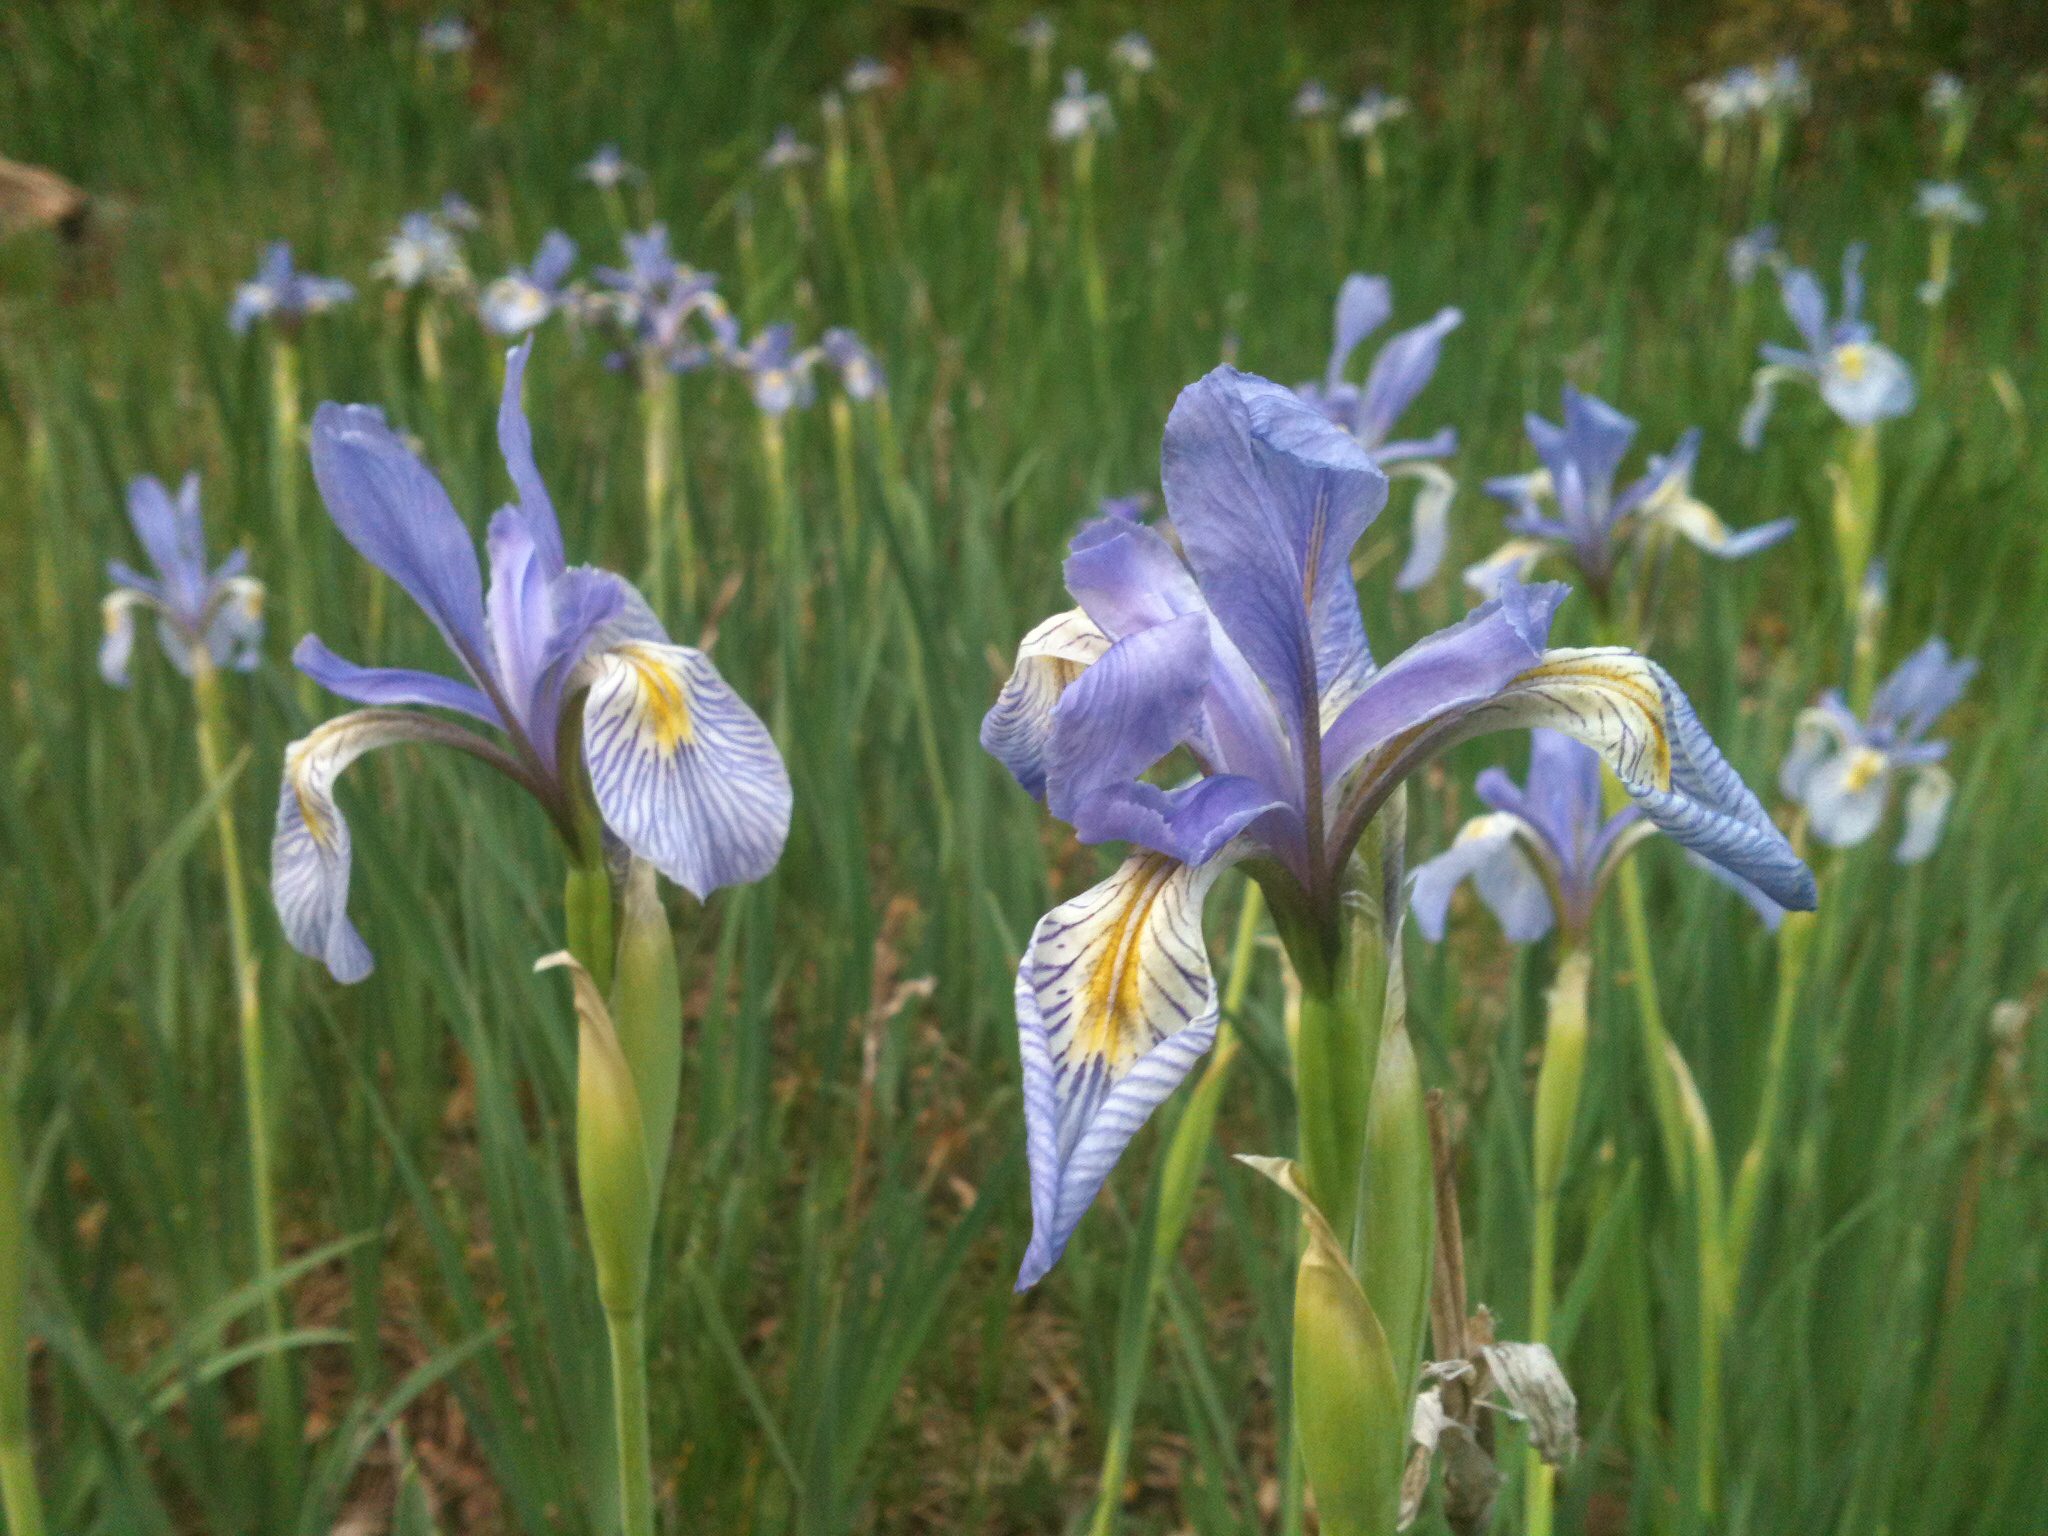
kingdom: Plantae
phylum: Tracheophyta
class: Liliopsida
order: Asparagales
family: Iridaceae
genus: Iris
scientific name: Iris missouriensis
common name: Rocky mountain iris
